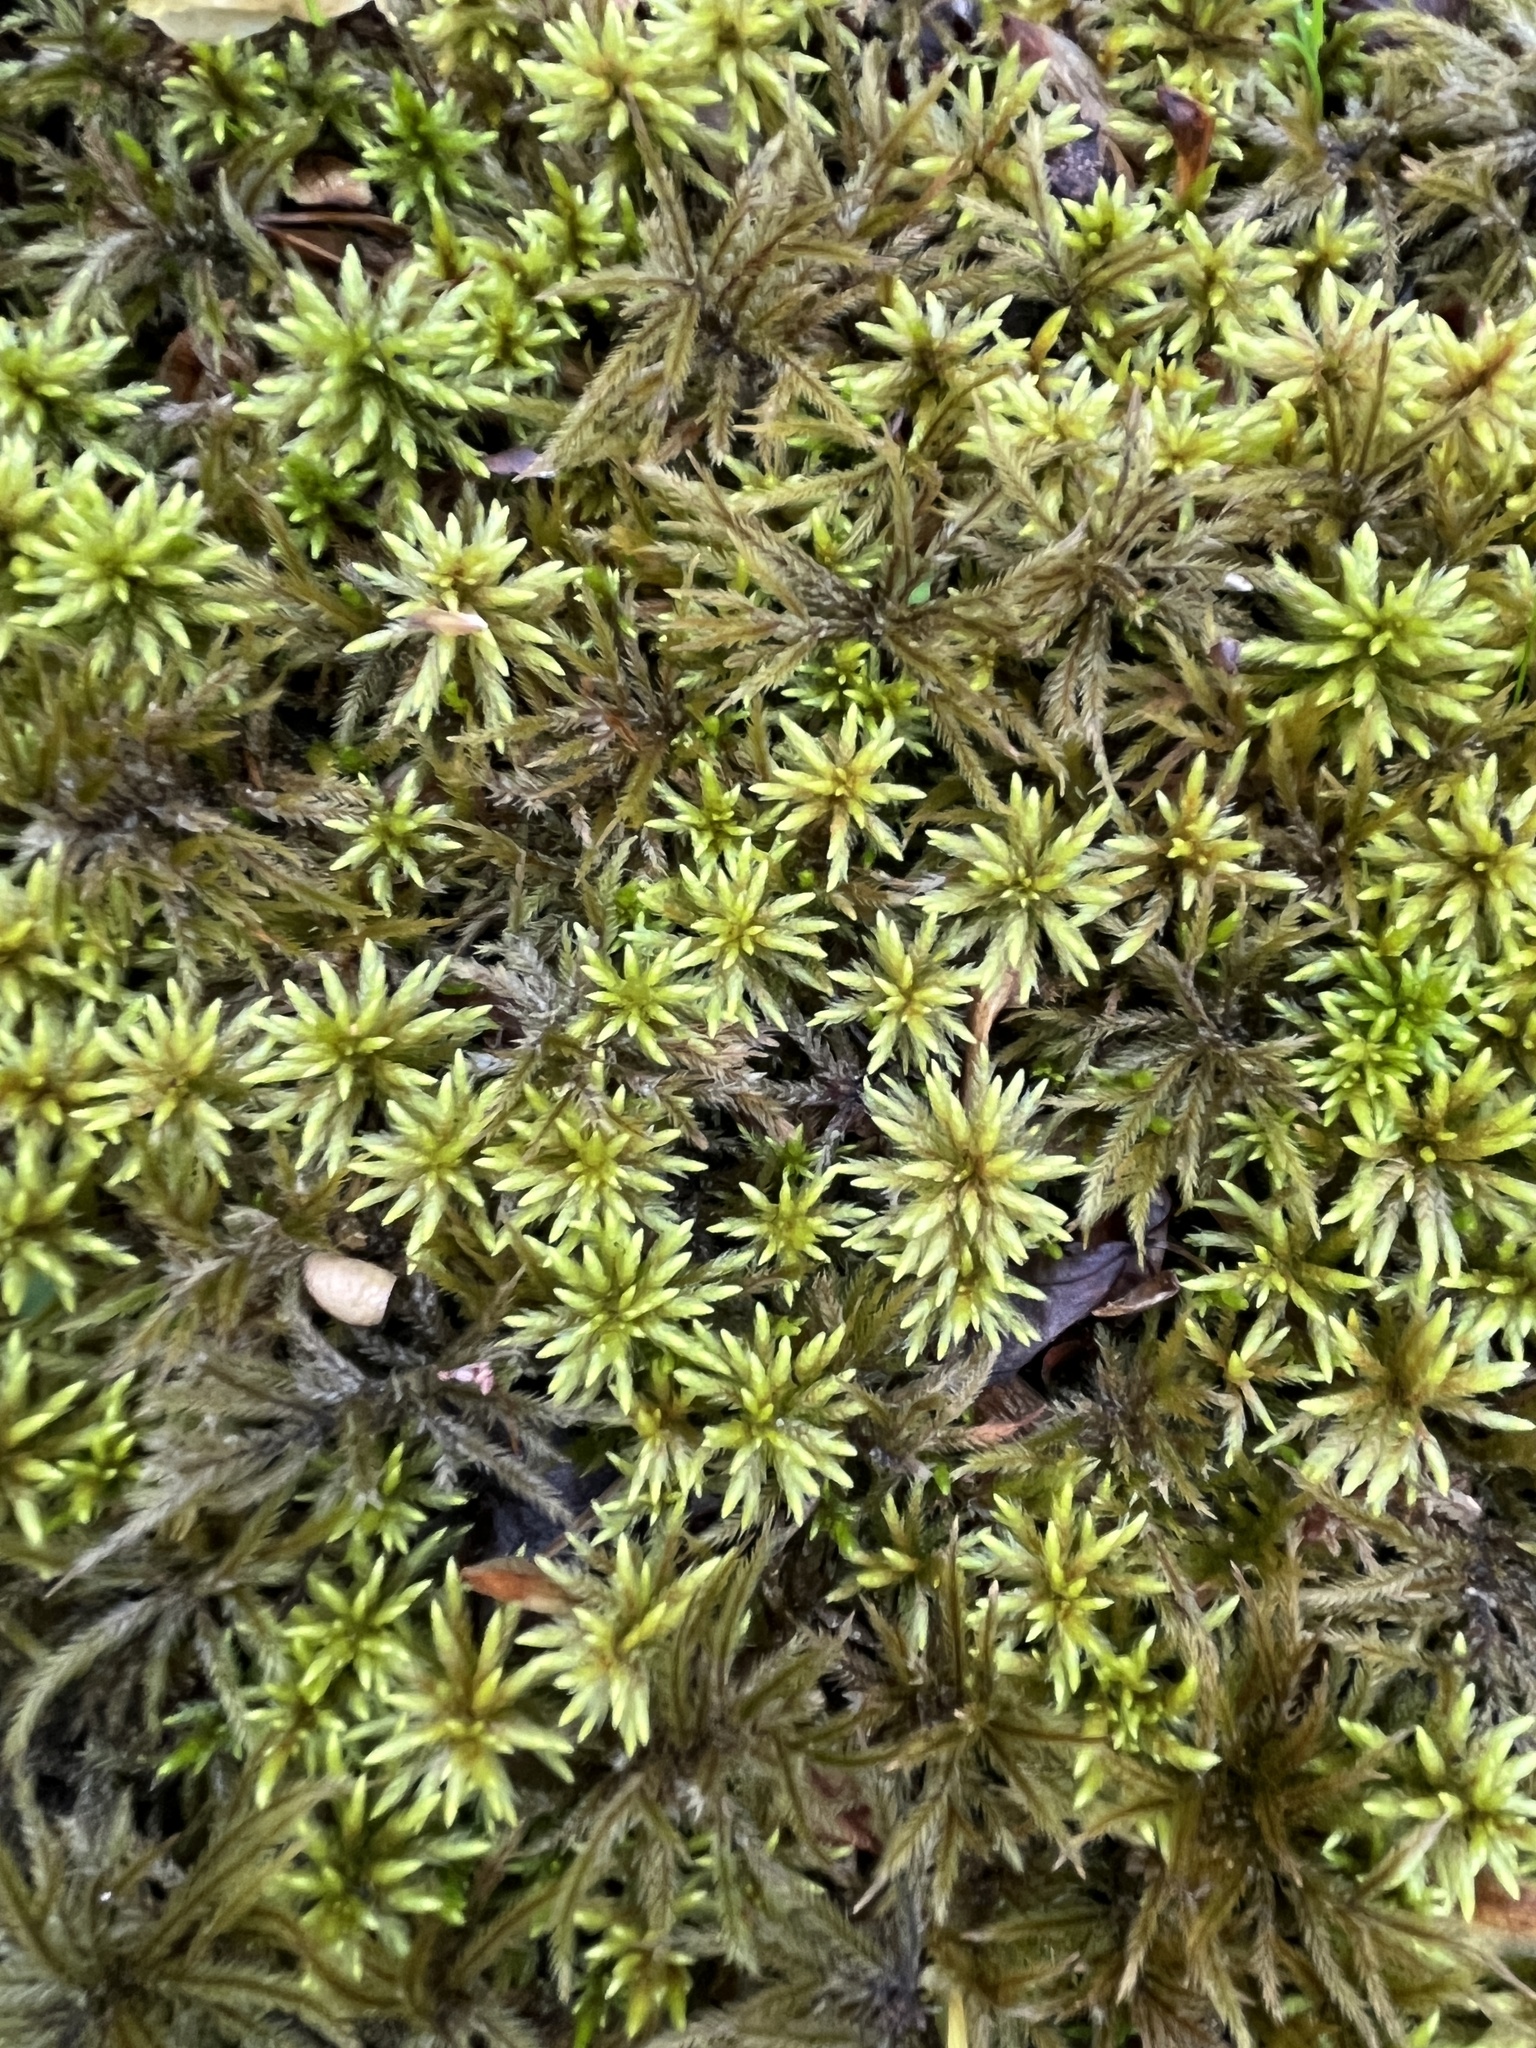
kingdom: Plantae
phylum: Bryophyta
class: Bryopsida
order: Hypnales
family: Climaciaceae
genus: Climacium
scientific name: Climacium americanum
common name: American tree moss
